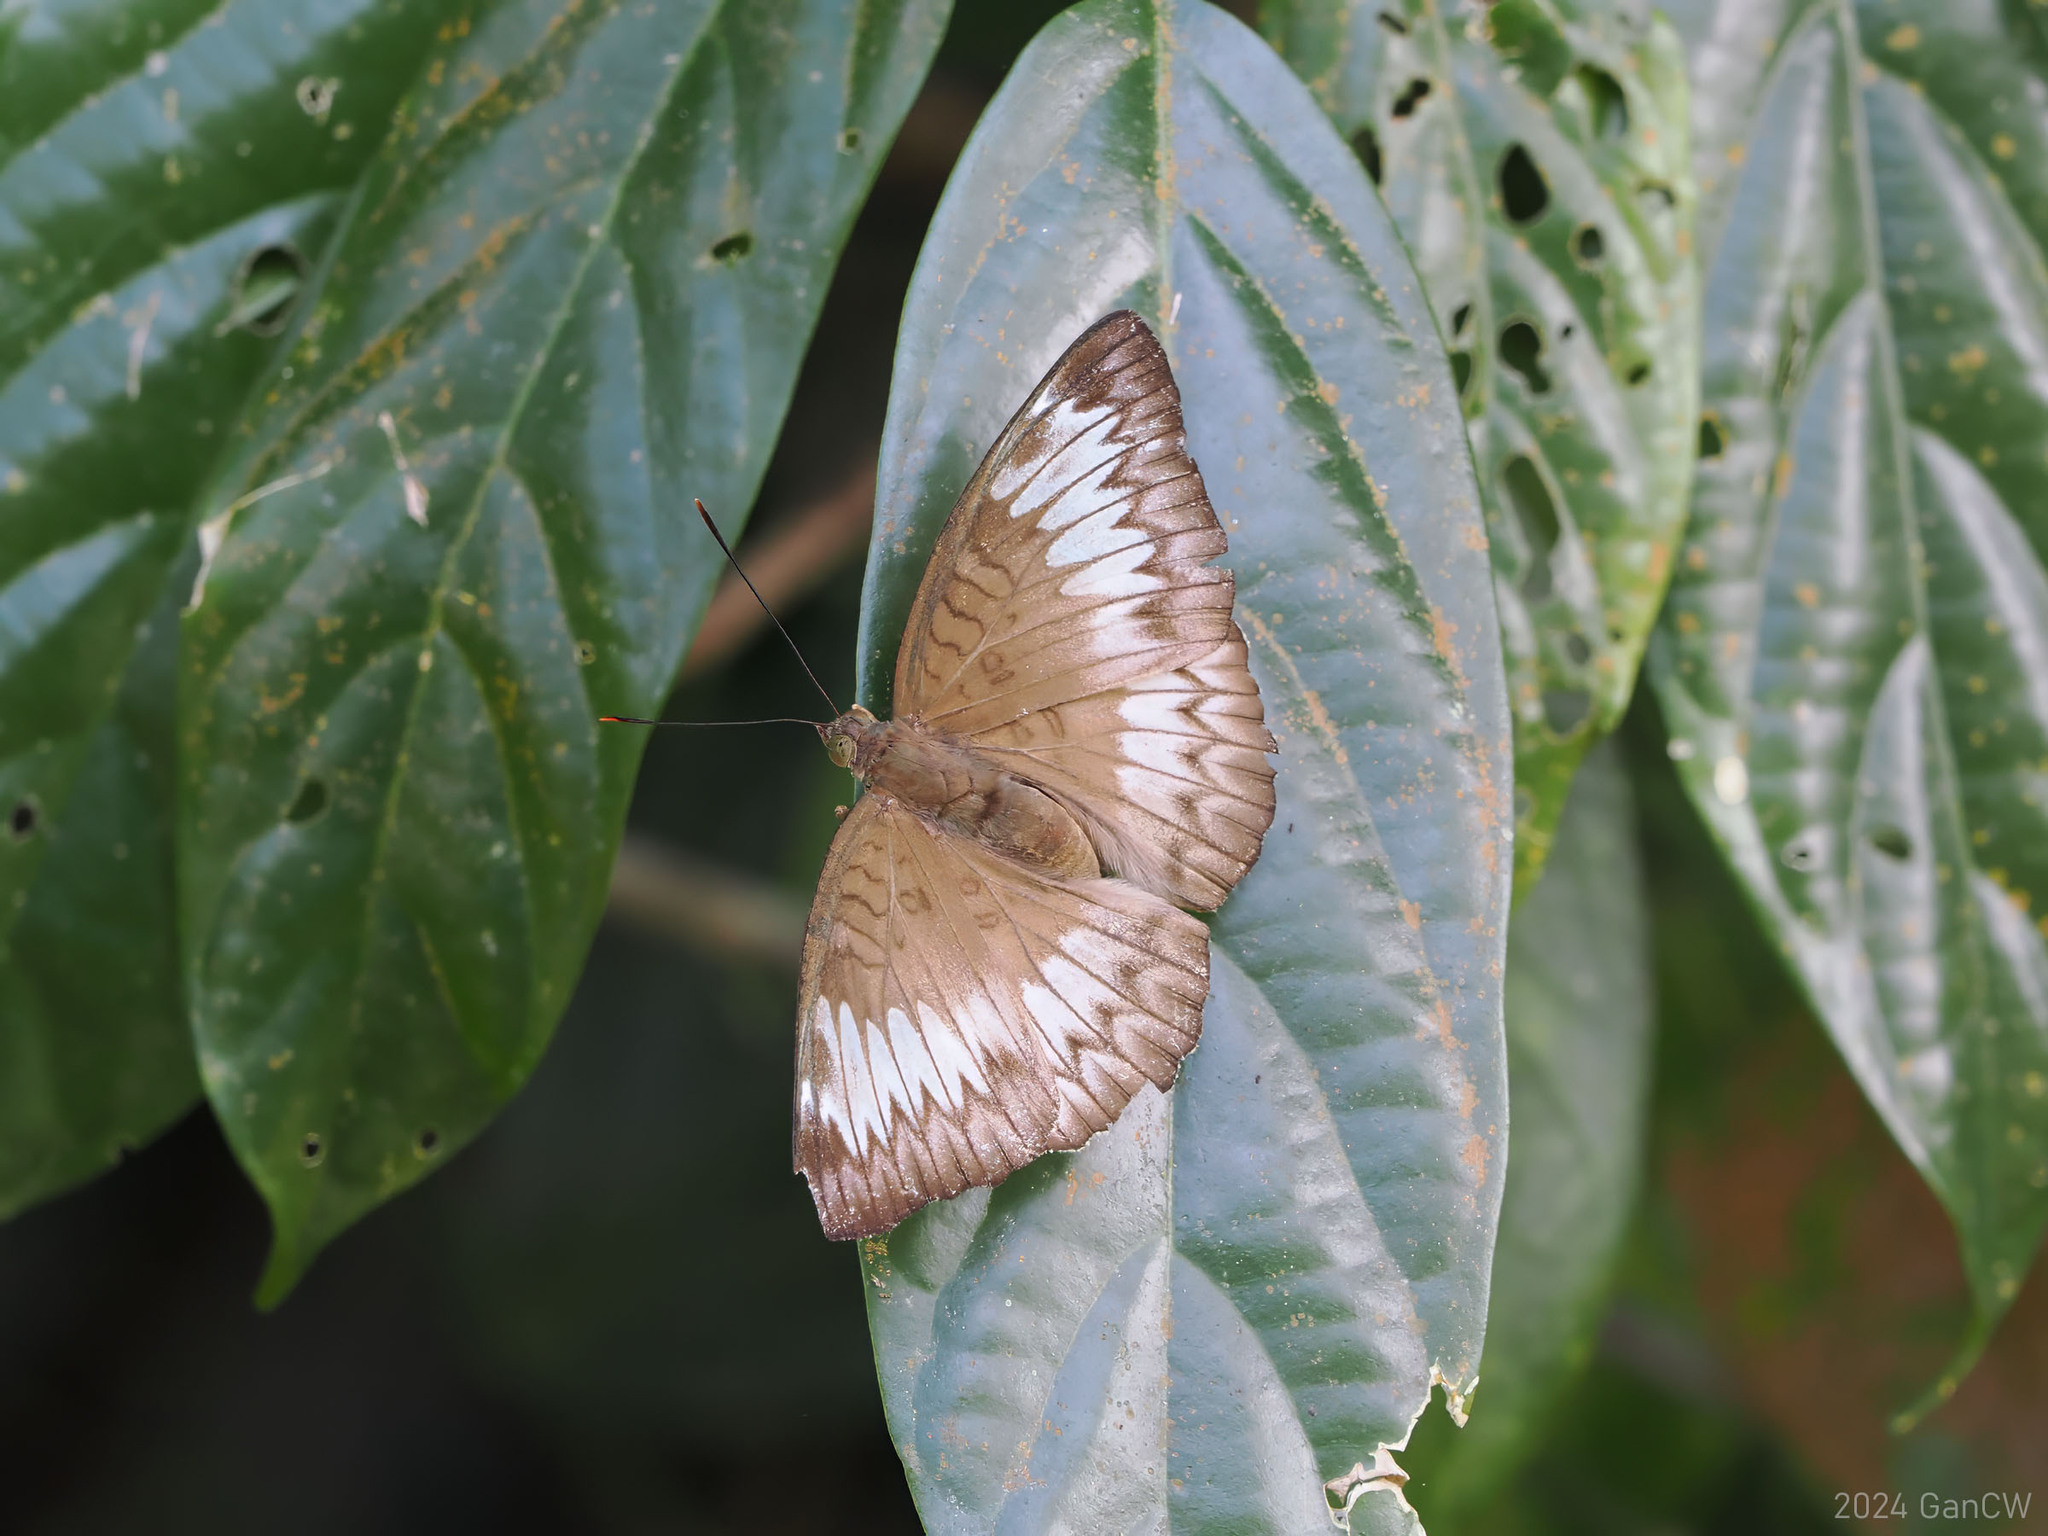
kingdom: Animalia
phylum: Arthropoda
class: Insecta
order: Lepidoptera
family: Nymphalidae
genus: Euthalia
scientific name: Euthalia monina
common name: Powdered baron
